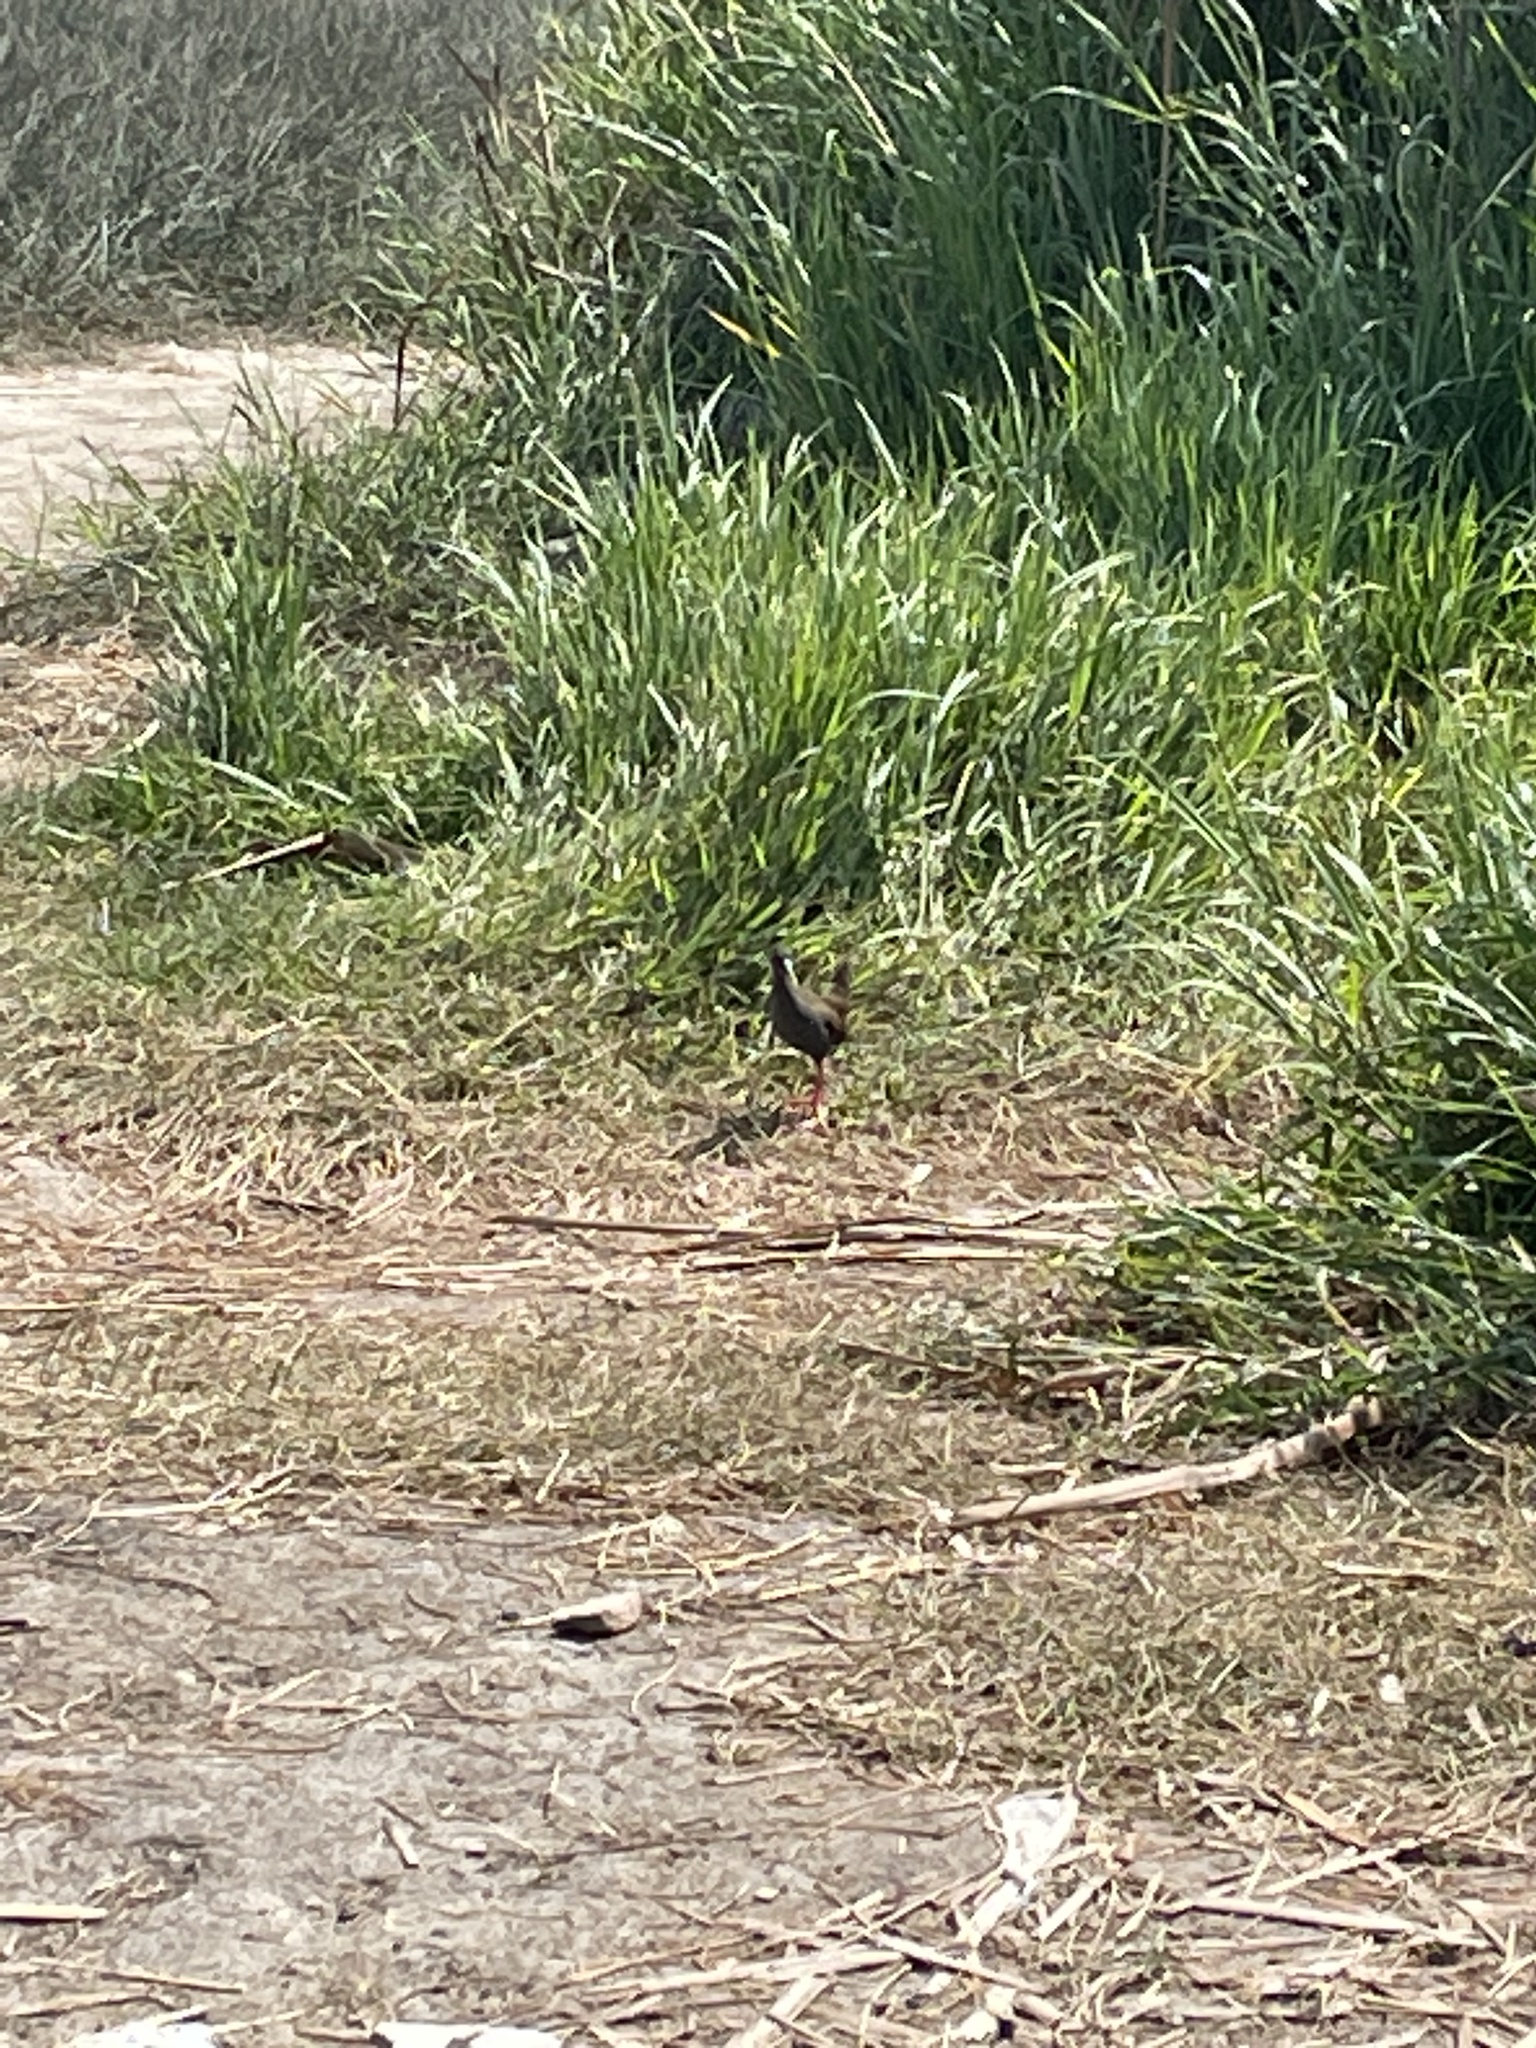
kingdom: Animalia
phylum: Chordata
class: Aves
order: Gruiformes
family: Rallidae
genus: Pardirallus
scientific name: Pardirallus sanguinolentus
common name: Plumbeous rail
